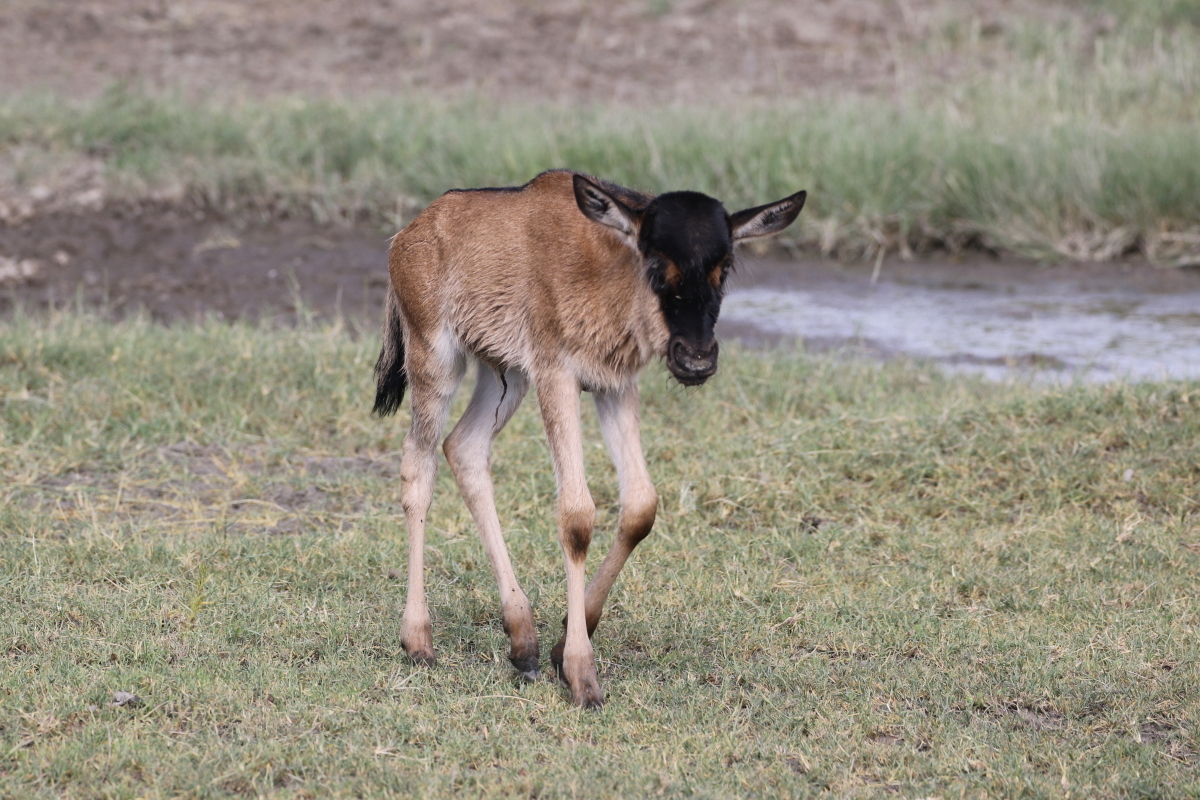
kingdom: Animalia
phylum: Chordata
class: Mammalia
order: Artiodactyla
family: Bovidae
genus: Connochaetes
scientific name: Connochaetes taurinus
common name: Blue wildebeest
